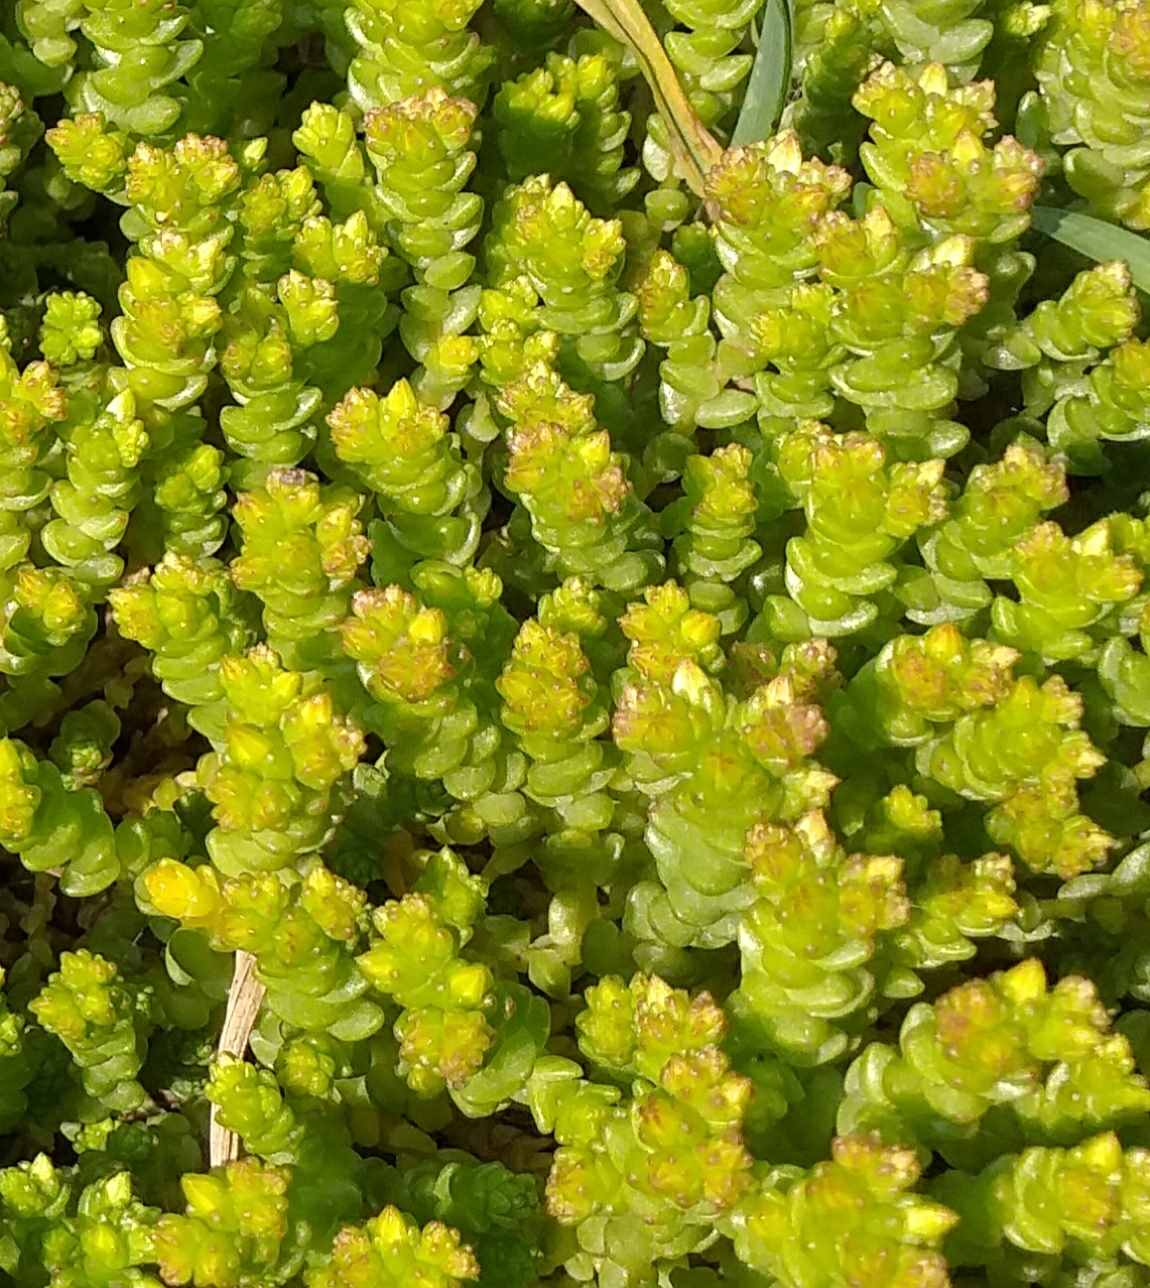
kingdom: Plantae
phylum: Tracheophyta
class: Magnoliopsida
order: Saxifragales
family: Crassulaceae
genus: Sedum
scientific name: Sedum acre
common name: Biting stonecrop
